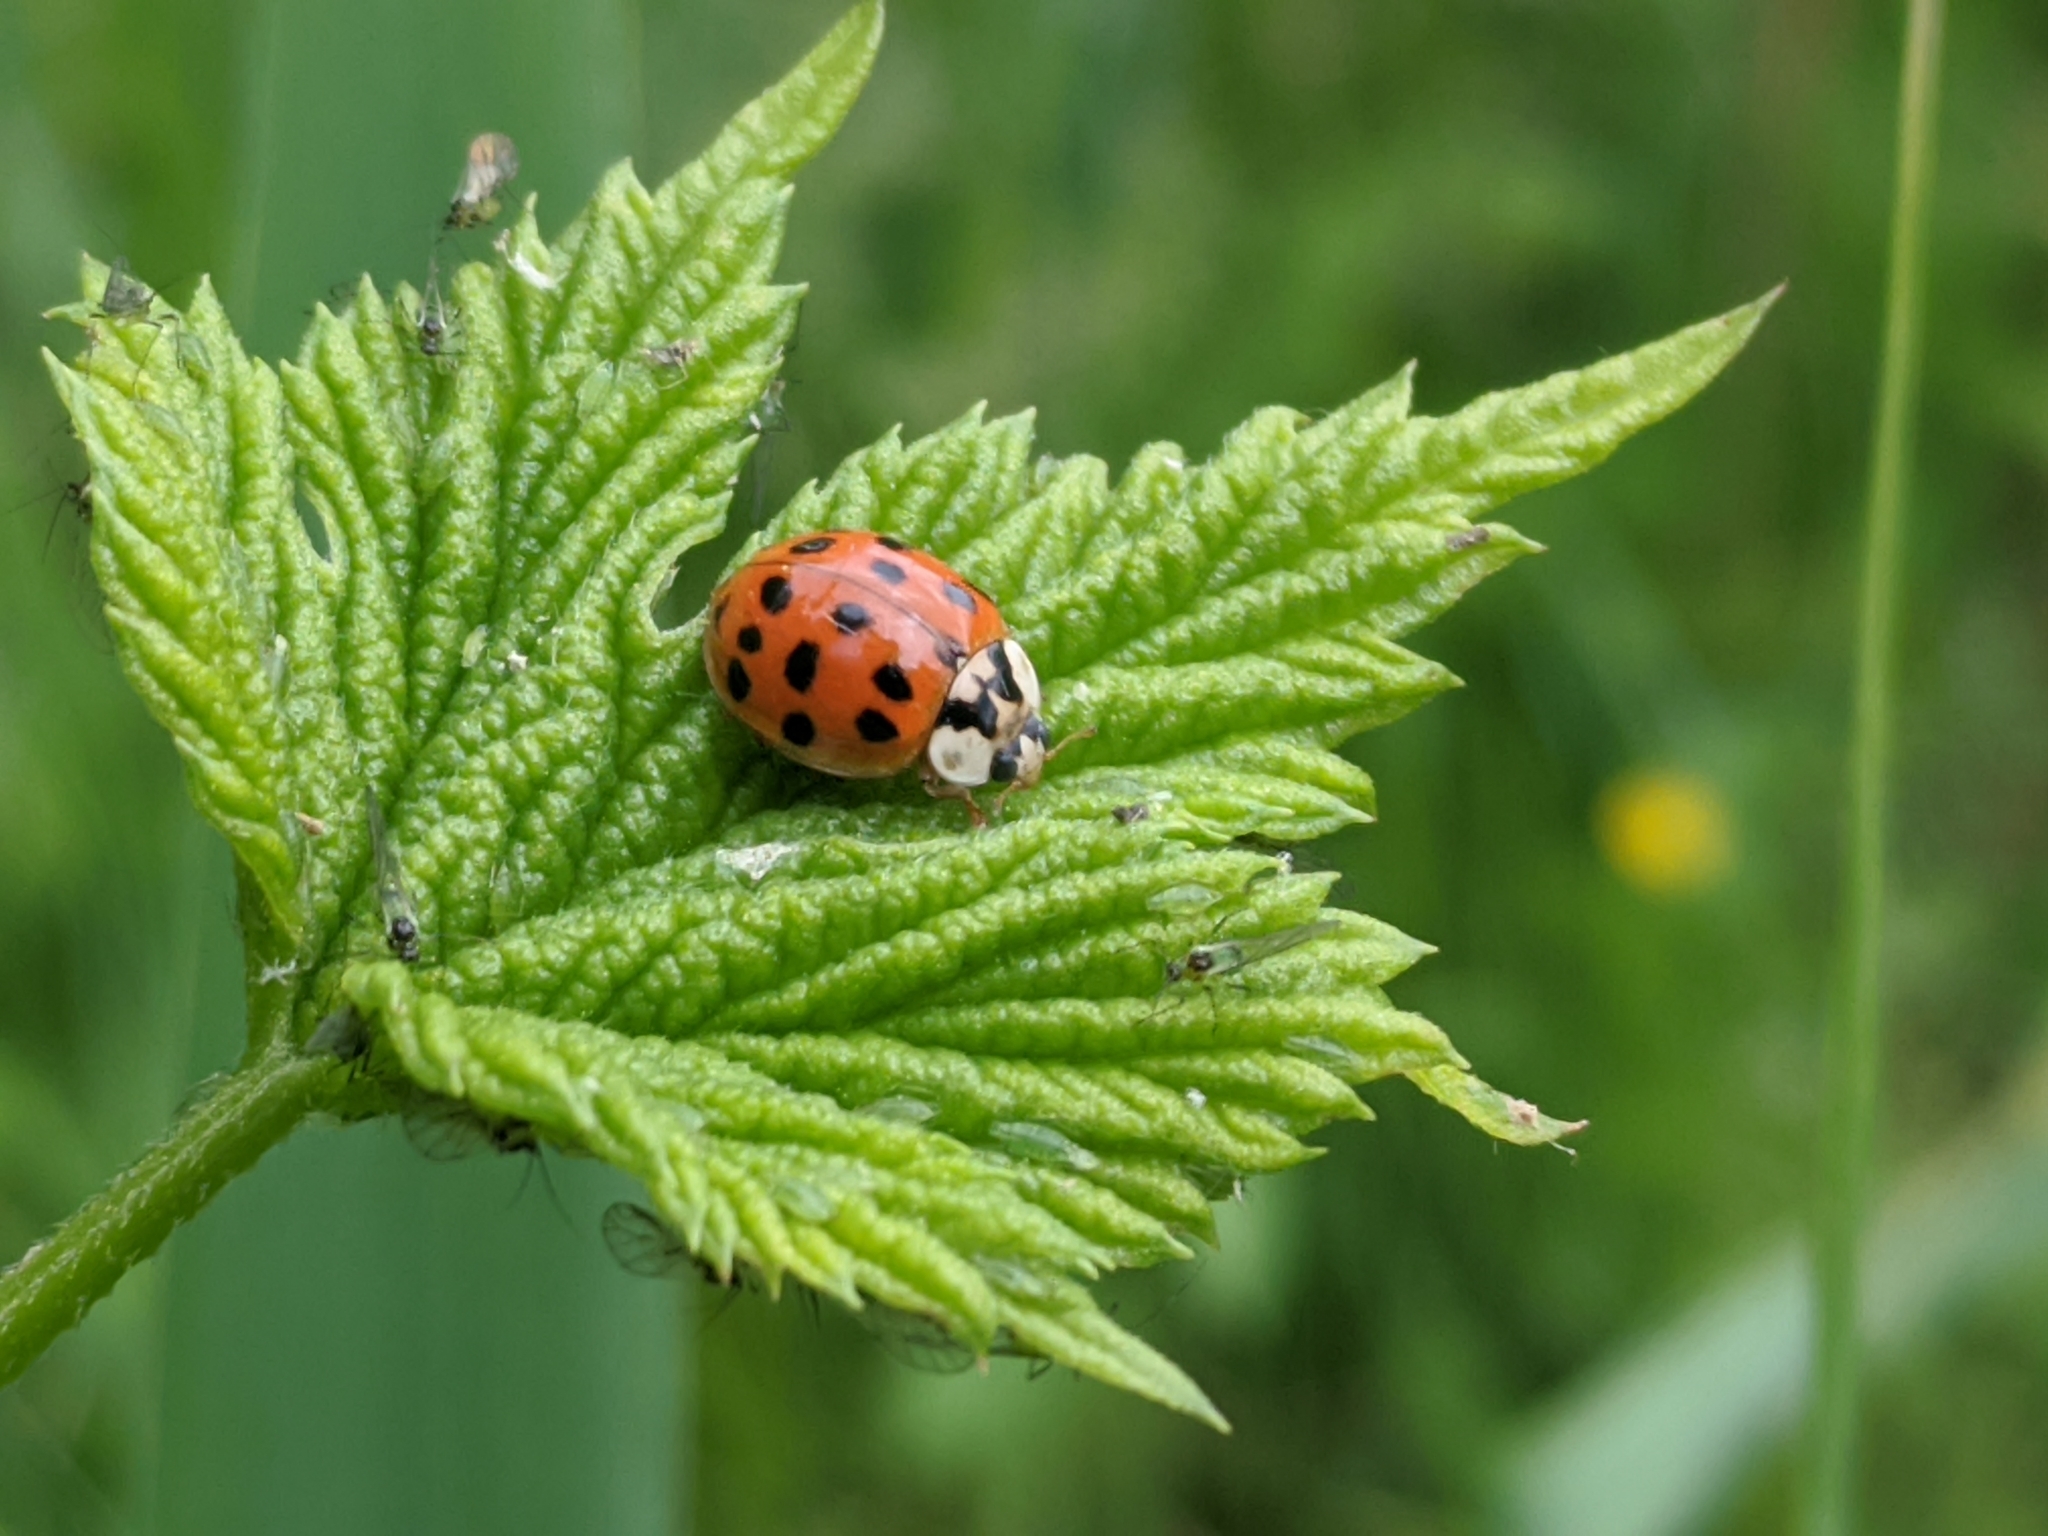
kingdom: Animalia
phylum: Arthropoda
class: Insecta
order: Coleoptera
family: Coccinellidae
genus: Harmonia
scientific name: Harmonia axyridis
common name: Harlequin ladybird
